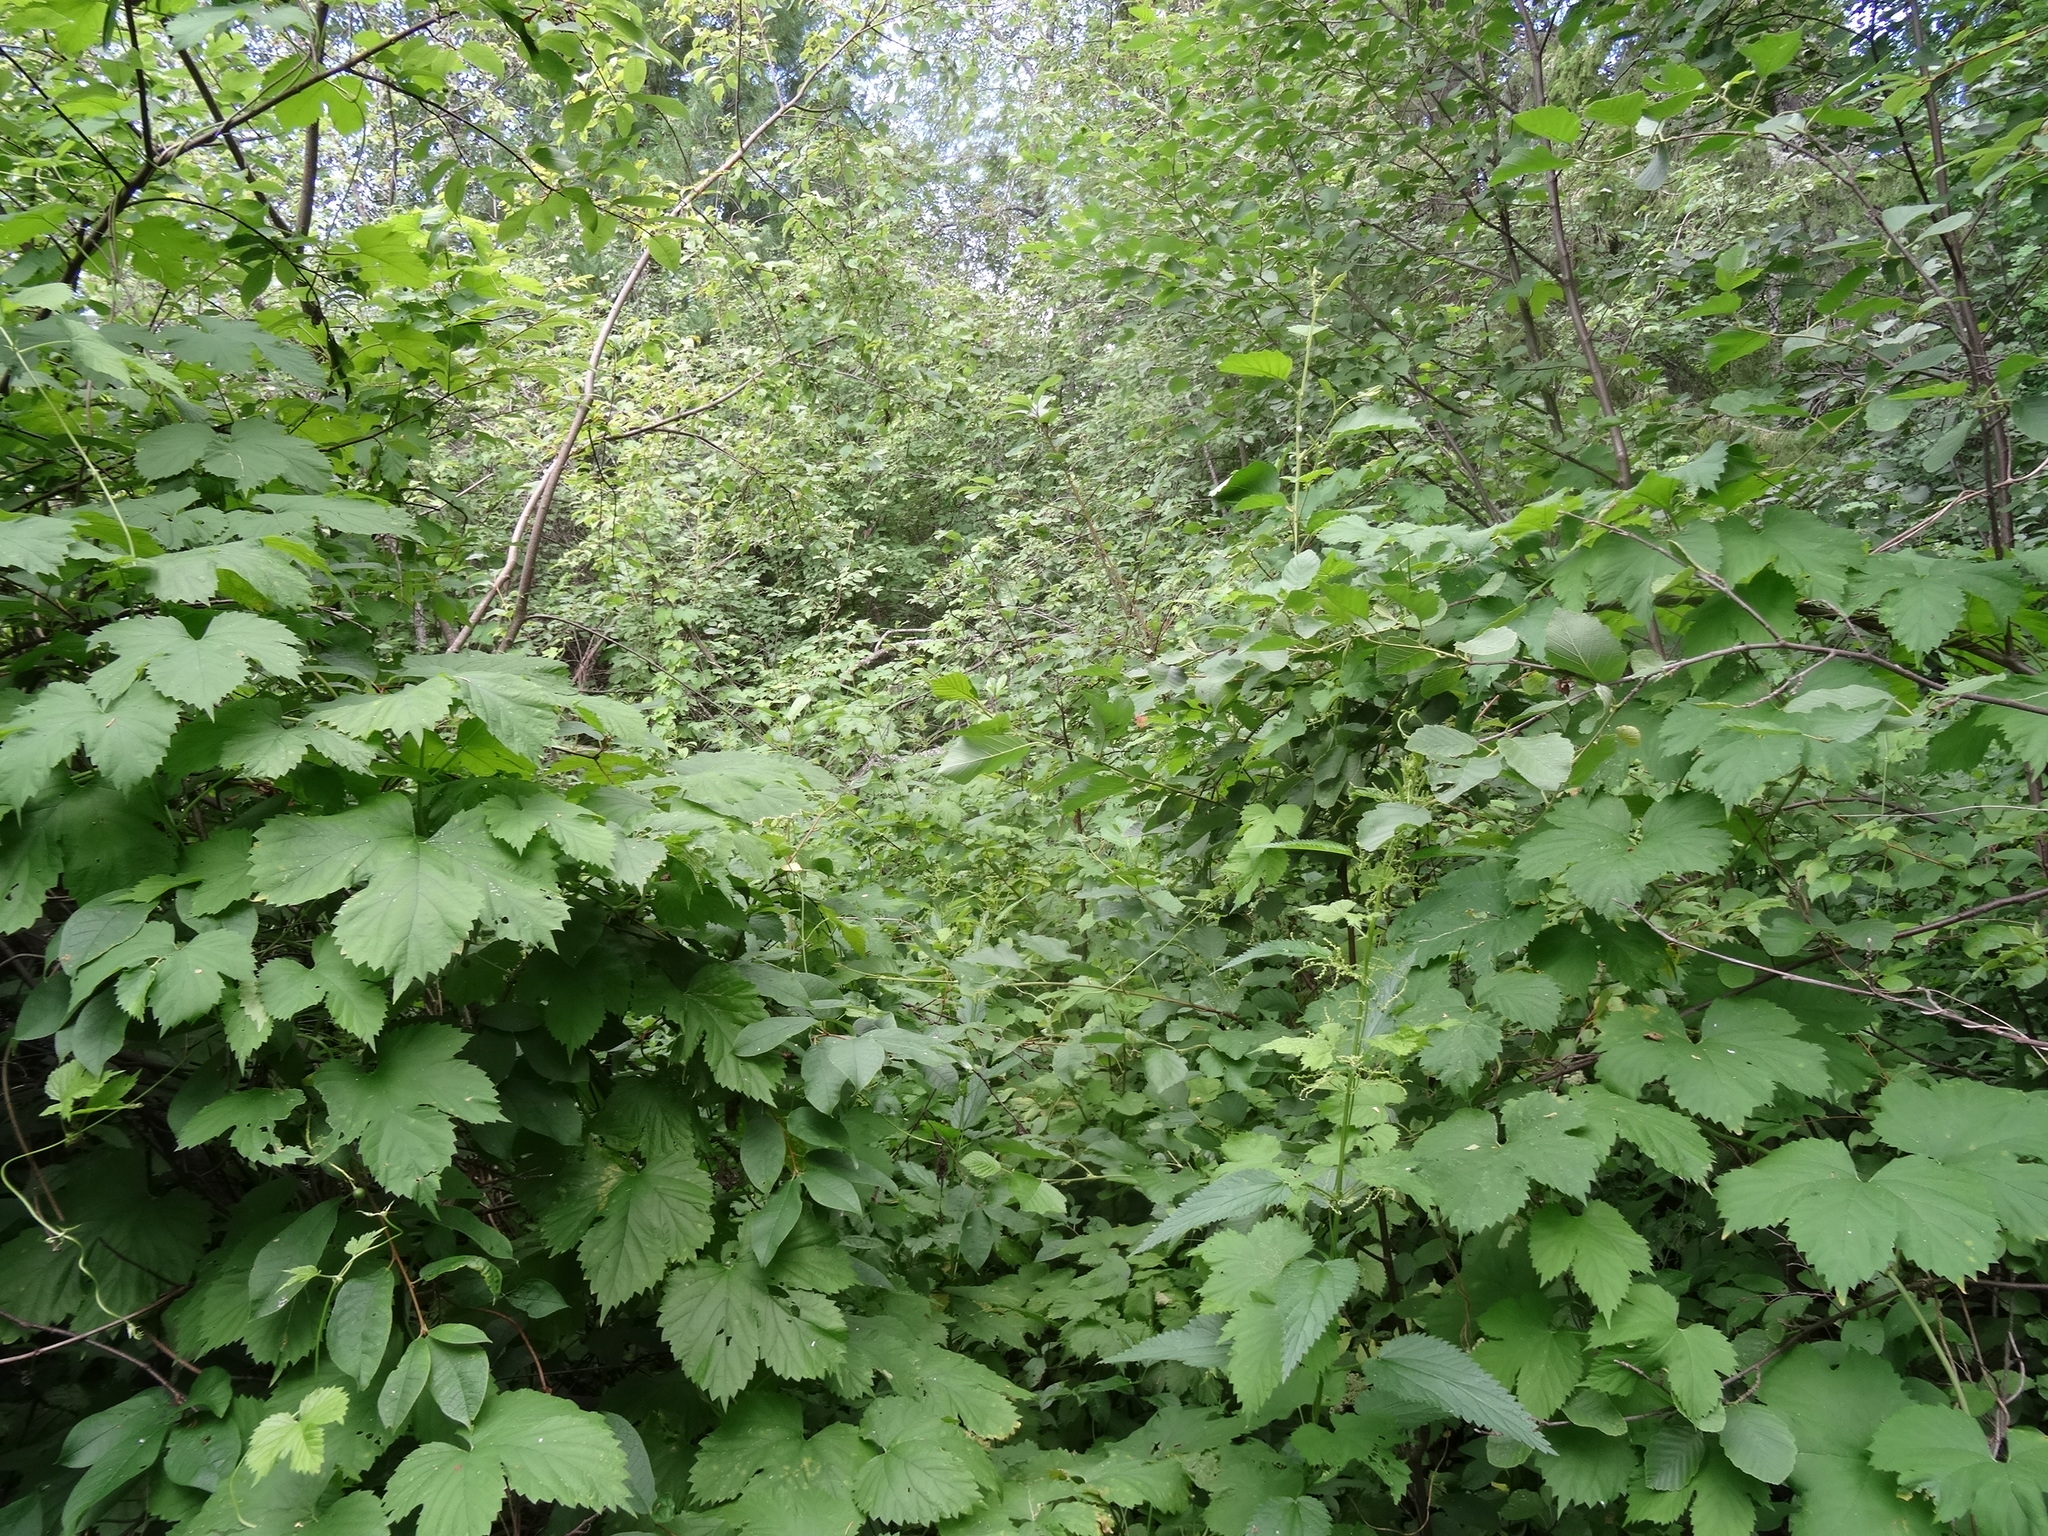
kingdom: Plantae
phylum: Tracheophyta
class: Magnoliopsida
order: Rosales
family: Cannabaceae
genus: Humulus
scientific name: Humulus lupulus
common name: Hop
